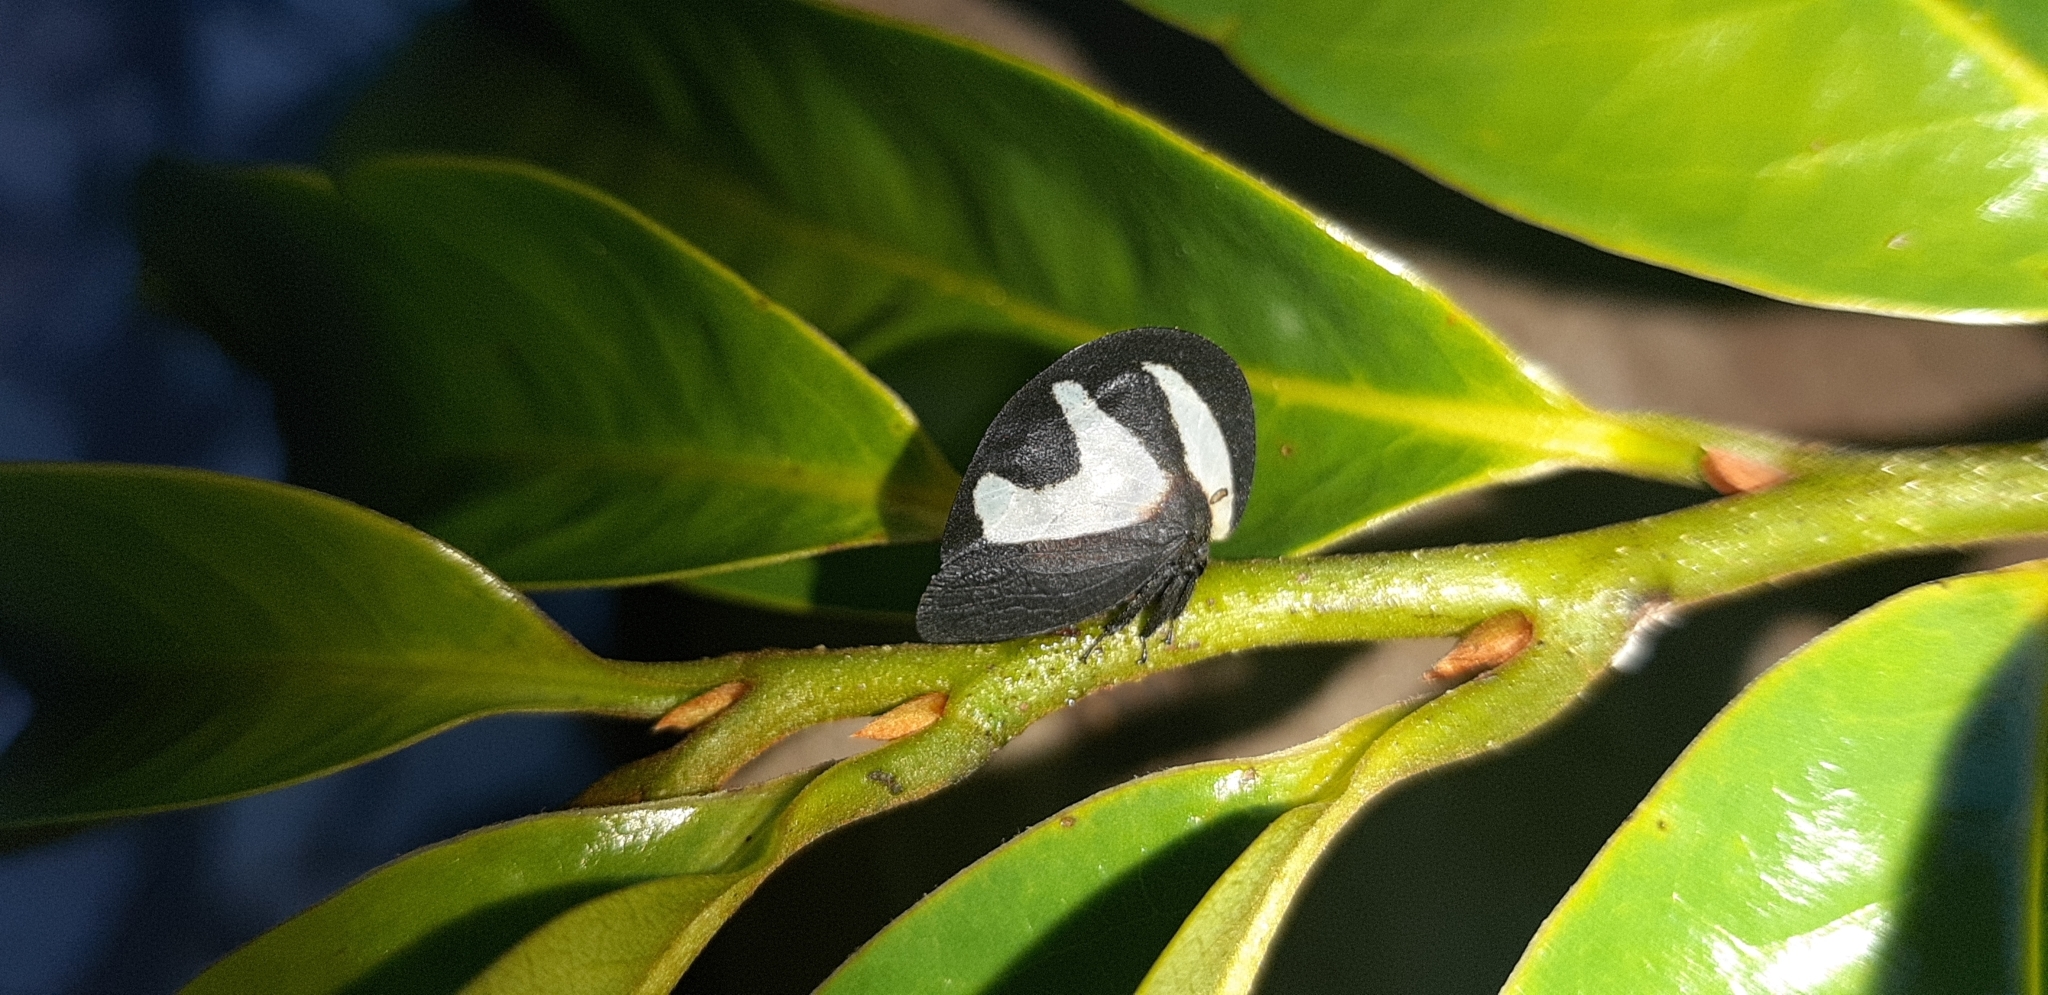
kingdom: Animalia
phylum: Arthropoda
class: Insecta
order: Hemiptera
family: Membracidae
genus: Membracis
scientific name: Membracis foliatafasciata
